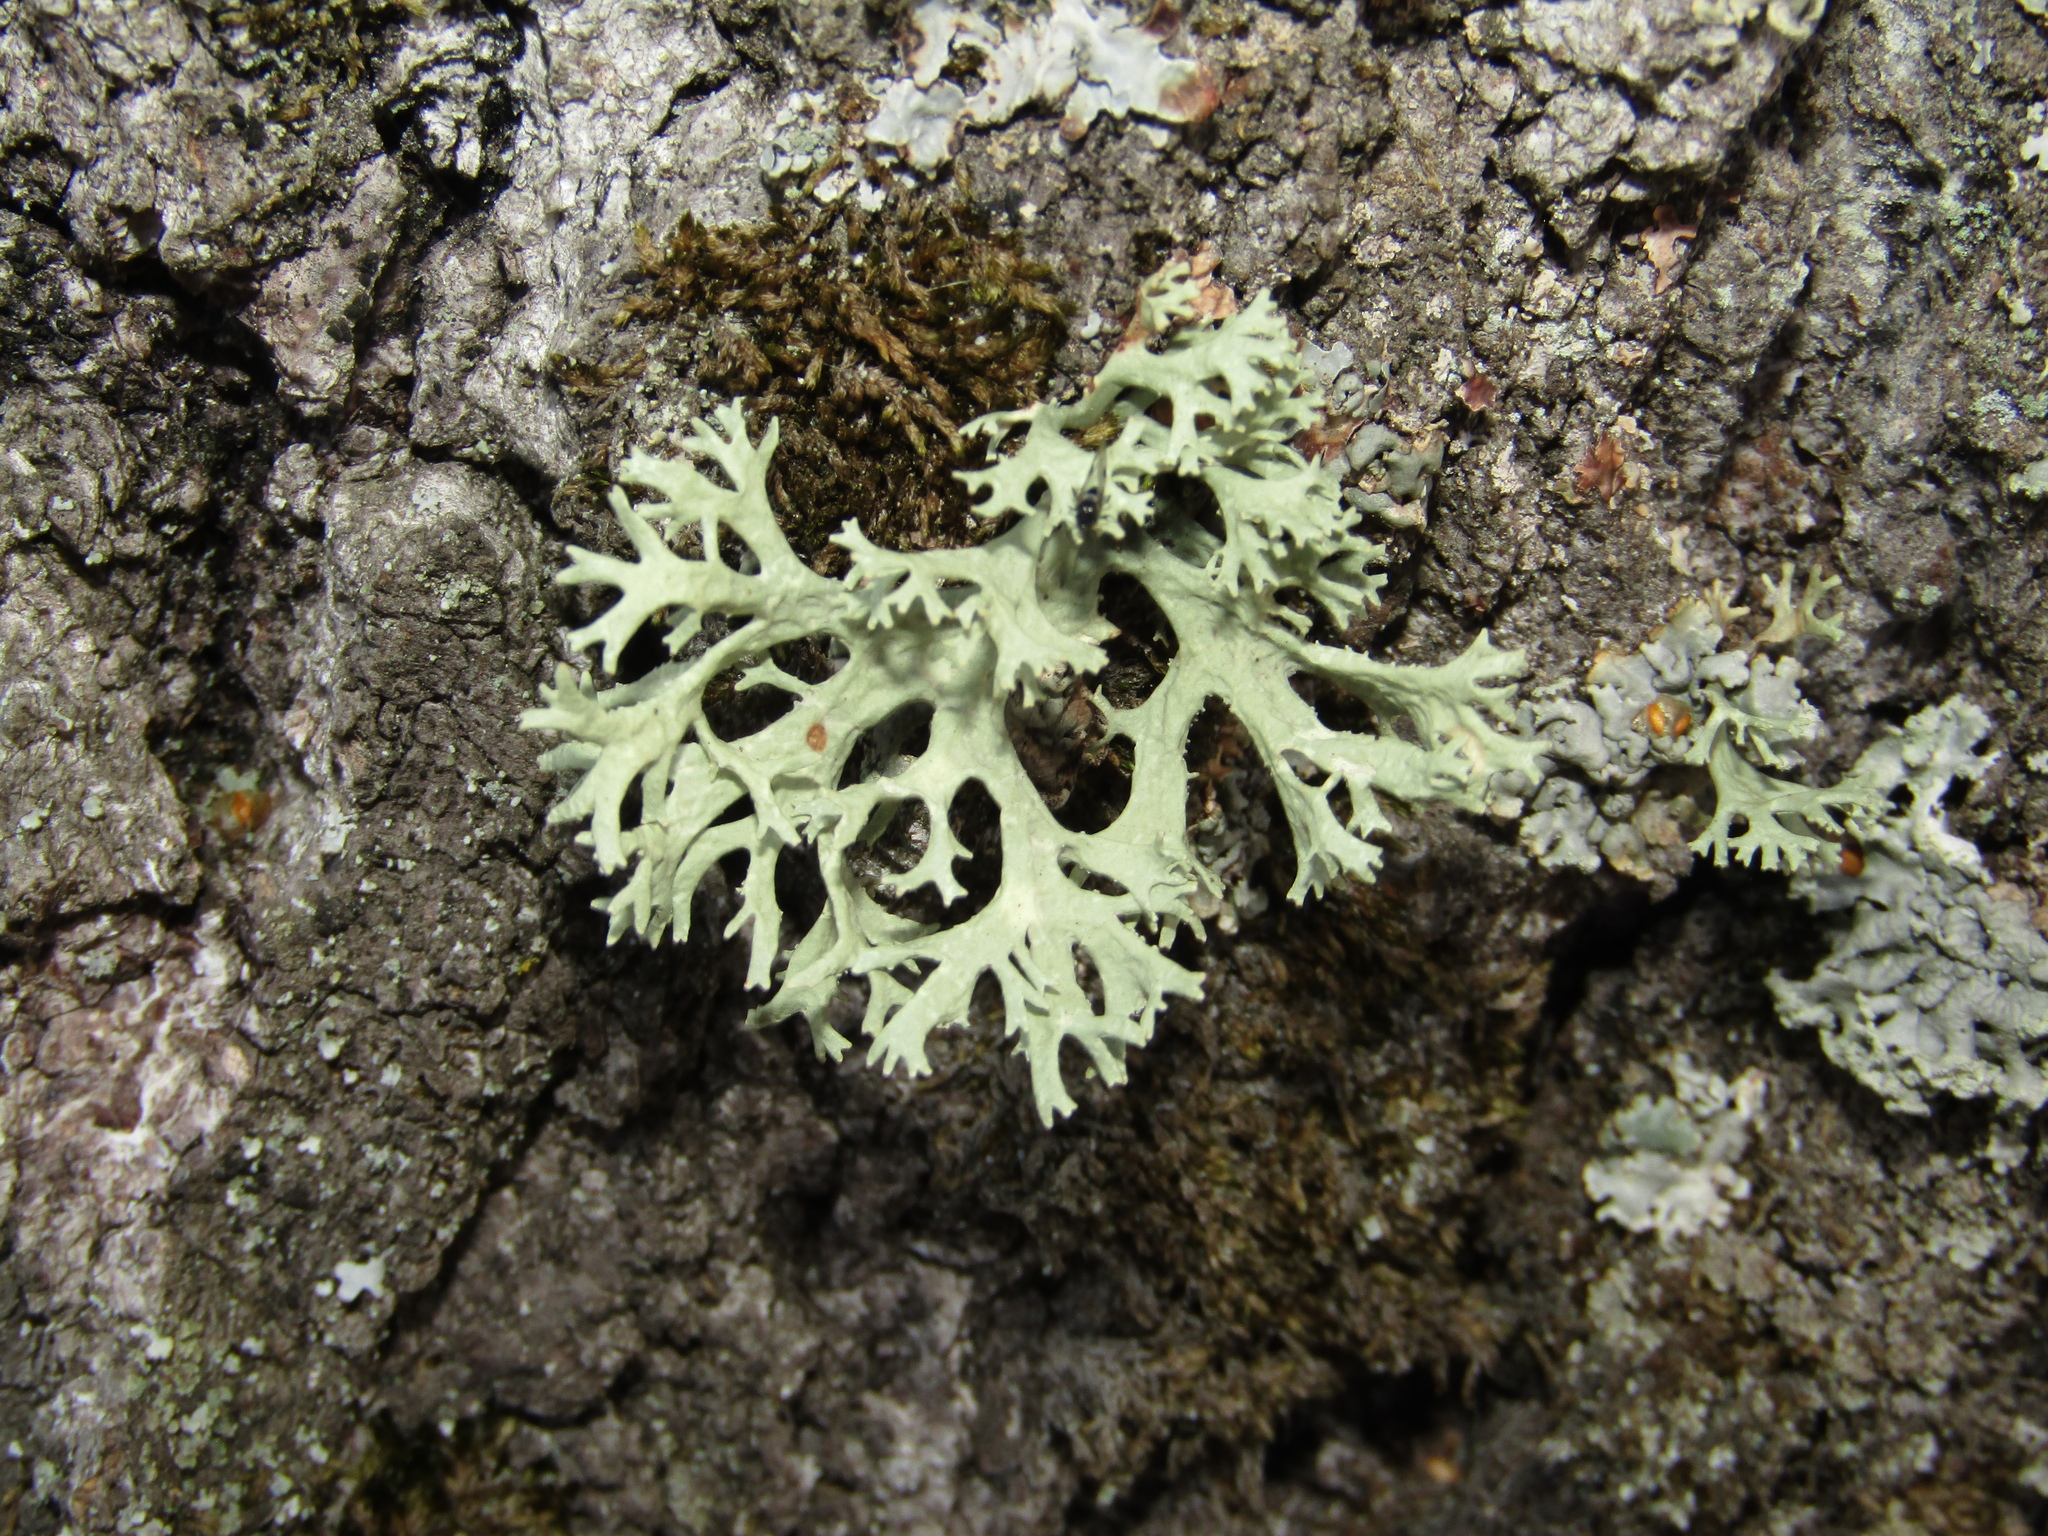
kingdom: Fungi
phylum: Ascomycota
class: Lecanoromycetes
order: Lecanorales
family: Parmeliaceae
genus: Evernia
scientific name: Evernia prunastri
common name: Oak moss
